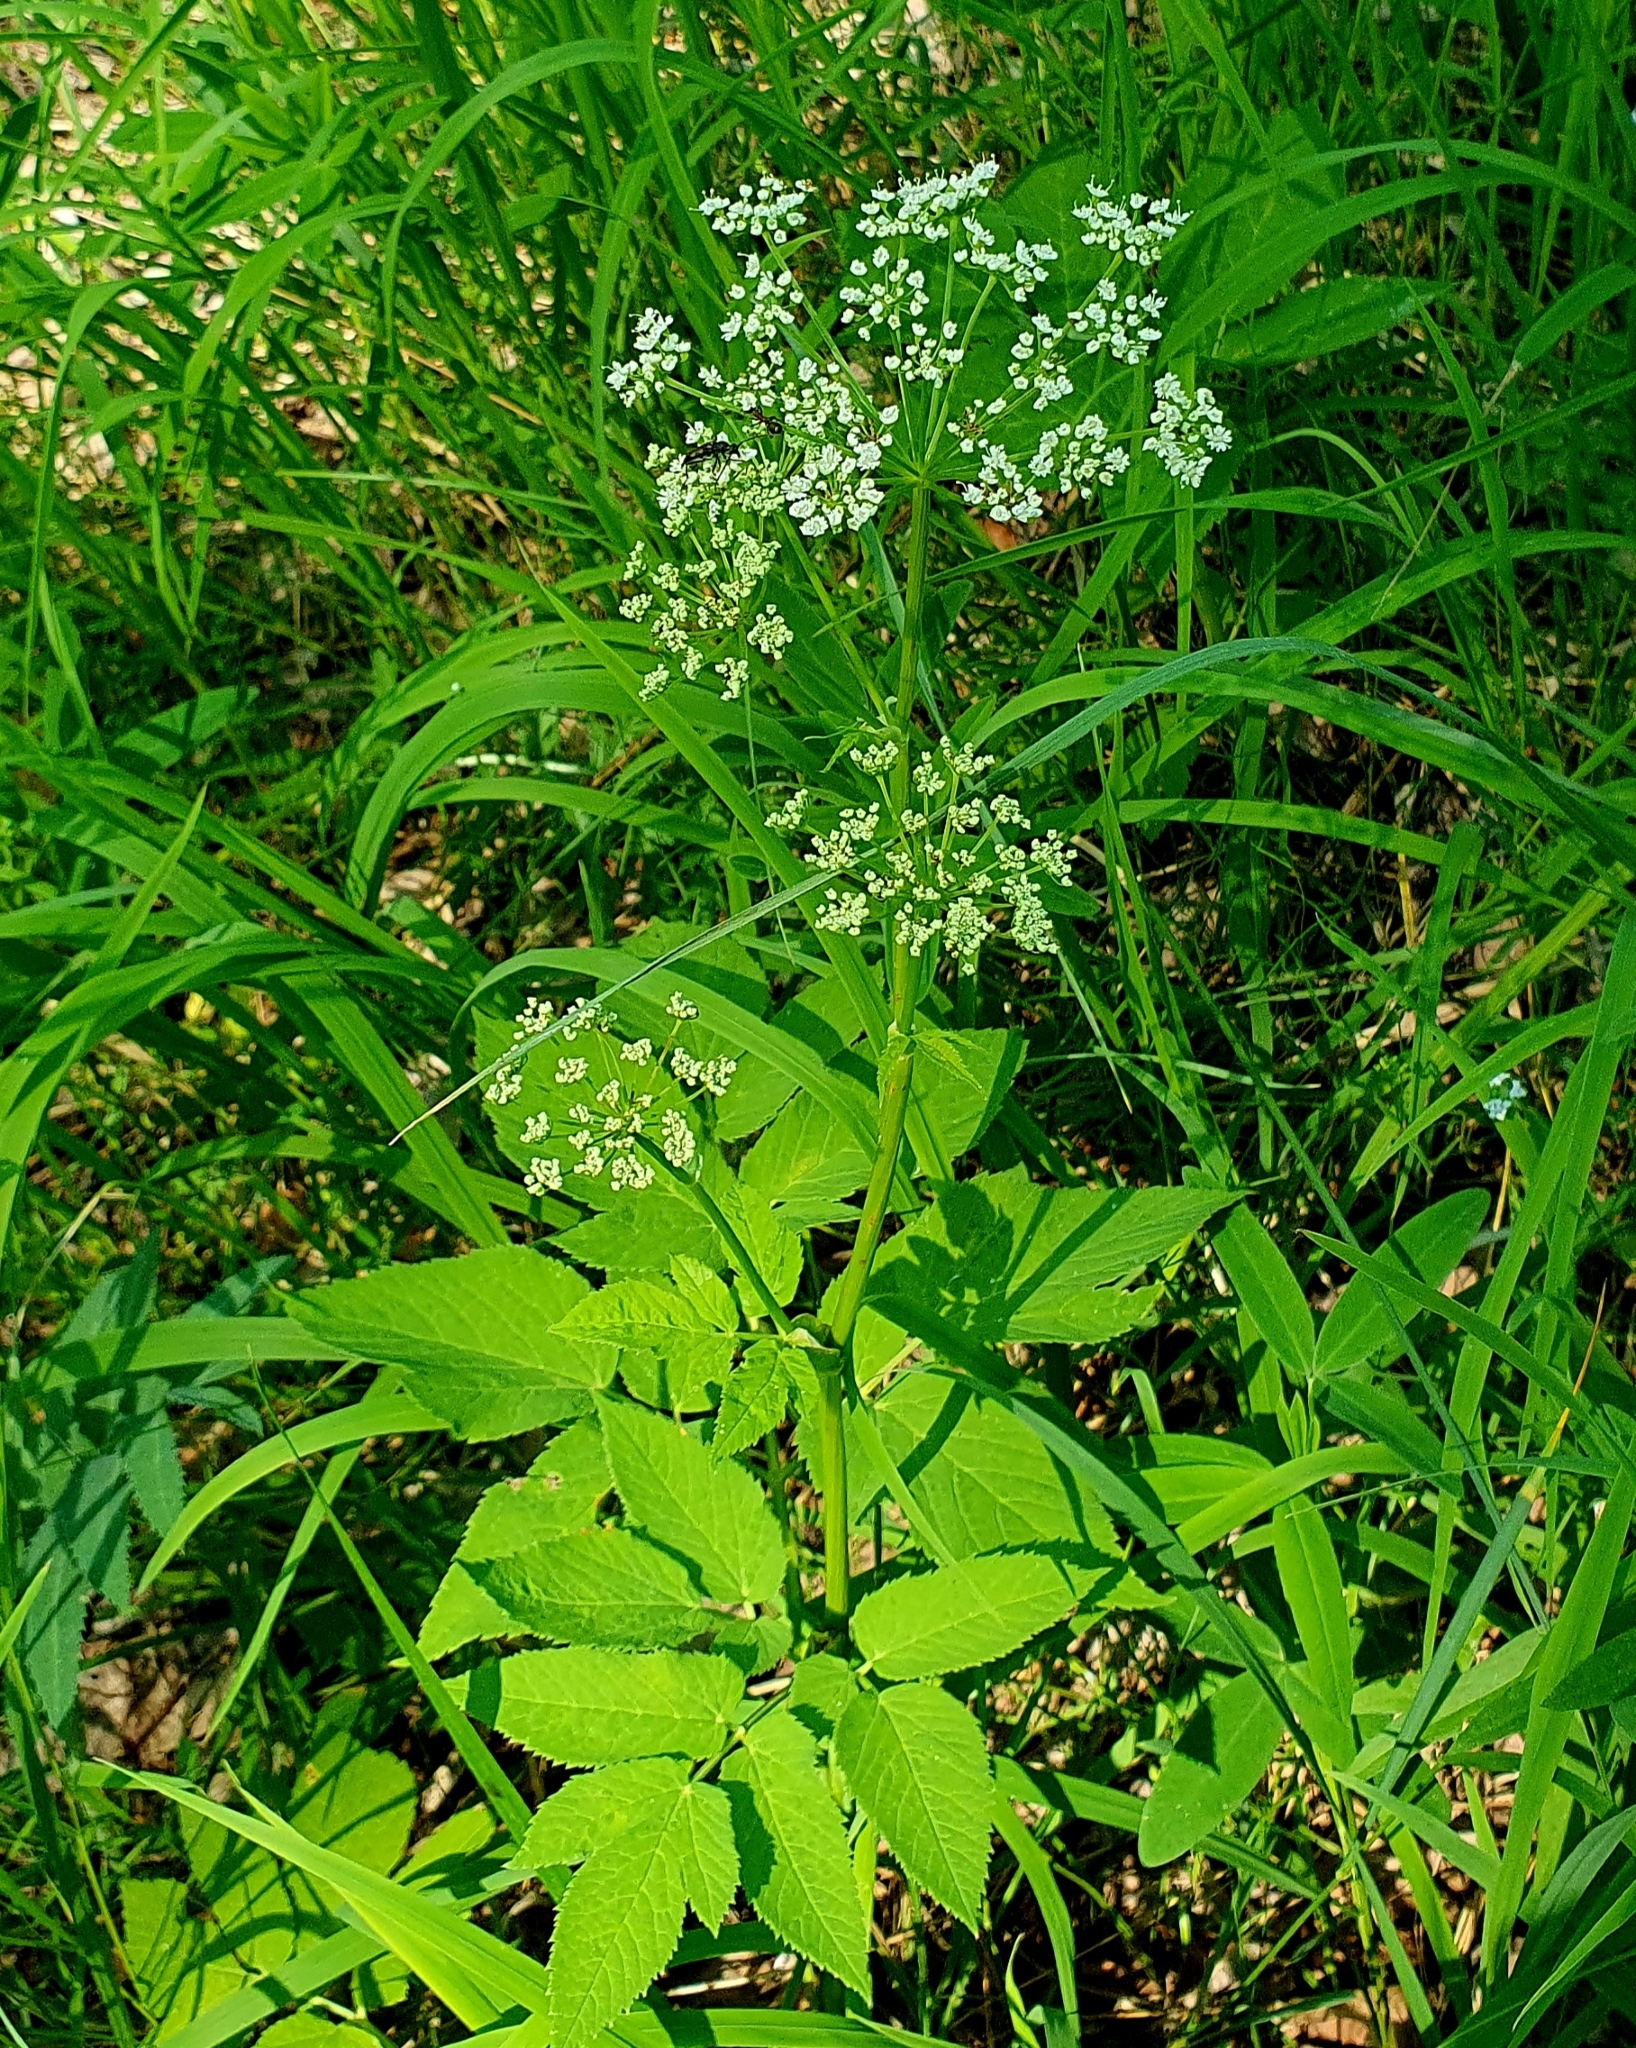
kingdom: Plantae
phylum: Tracheophyta
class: Magnoliopsida
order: Apiales
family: Apiaceae
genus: Aegopodium
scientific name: Aegopodium podagraria
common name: Ground-elder
